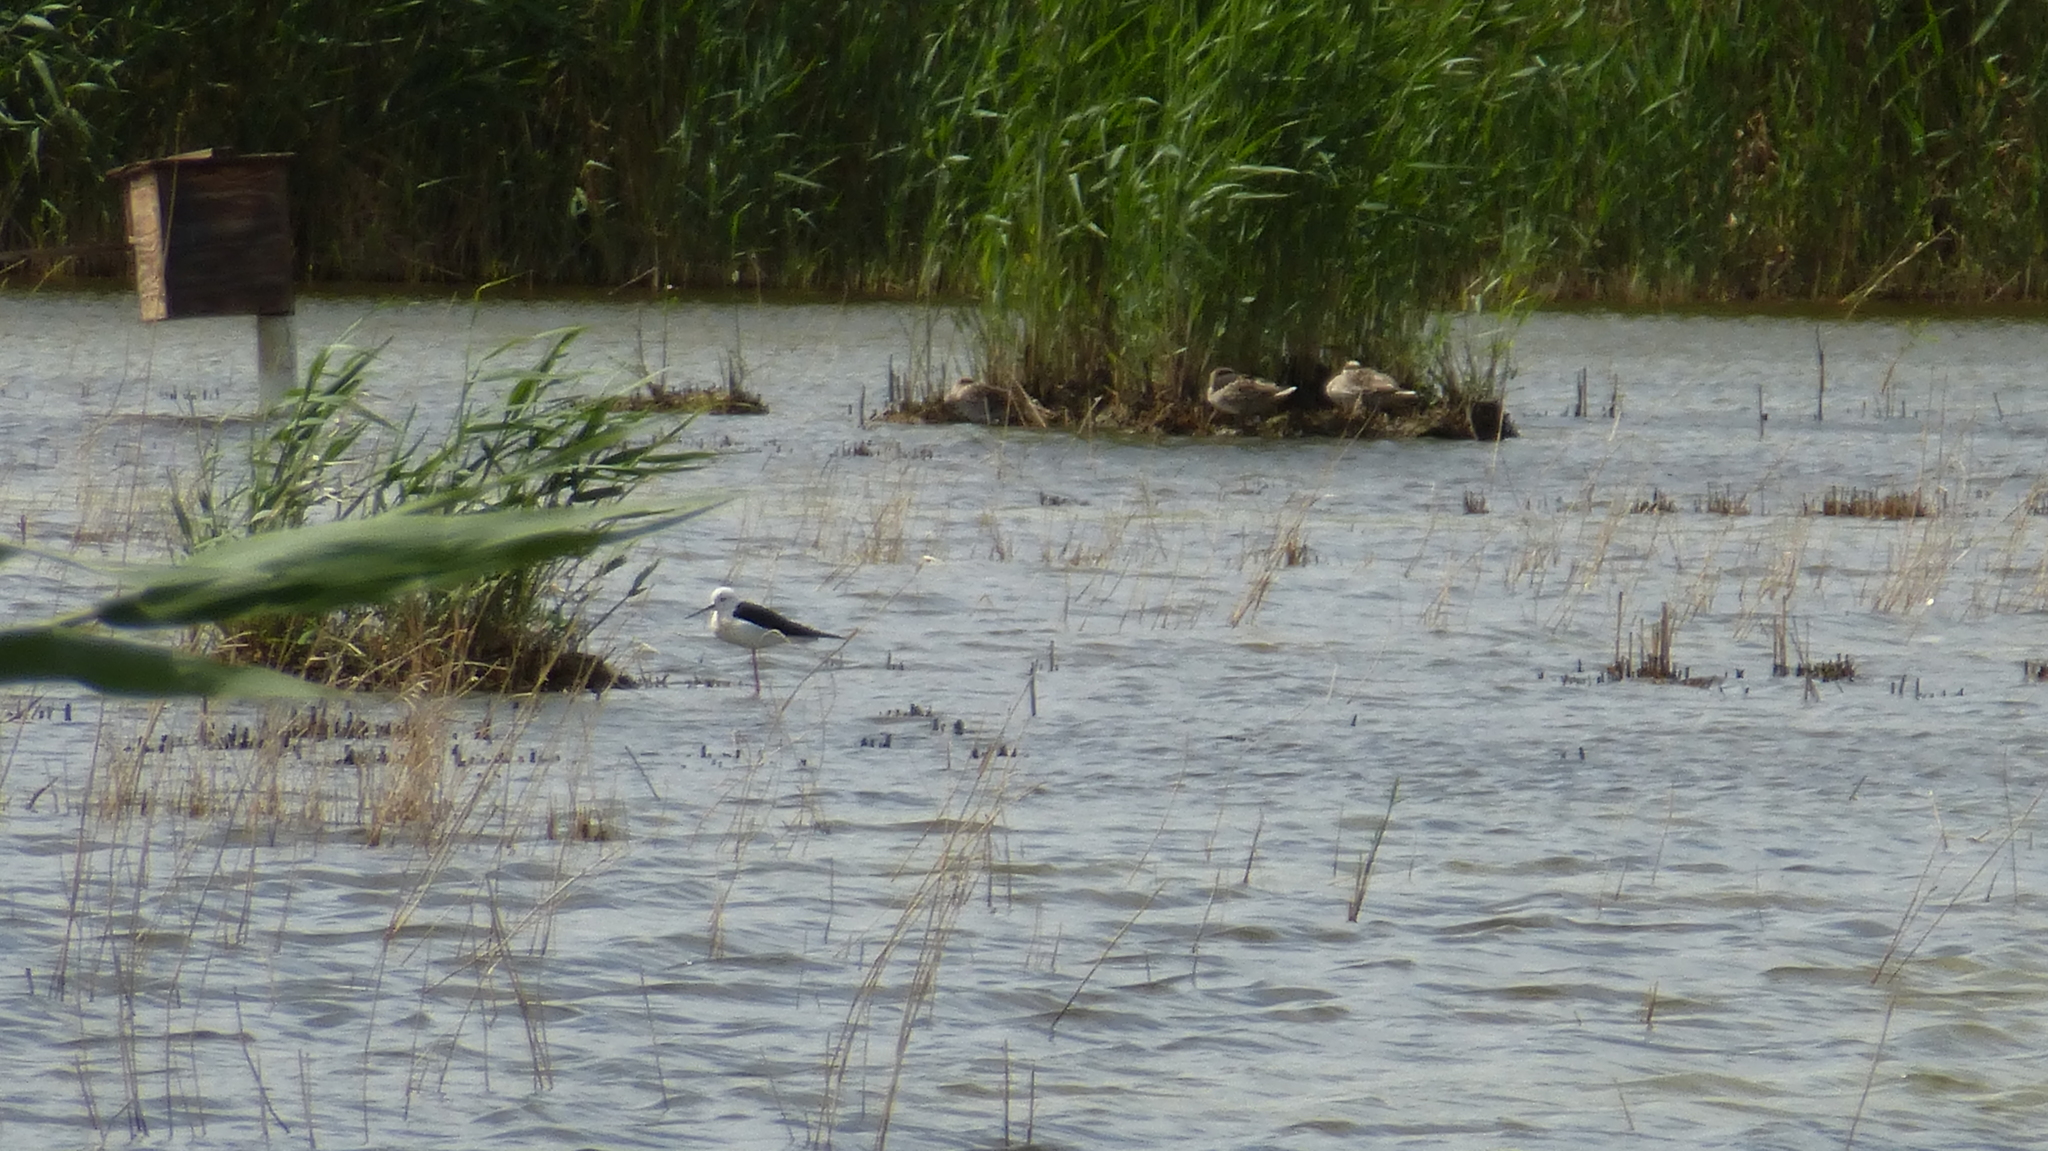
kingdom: Animalia
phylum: Chordata
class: Aves
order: Charadriiformes
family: Recurvirostridae
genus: Himantopus
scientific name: Himantopus himantopus
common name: Black-winged stilt
